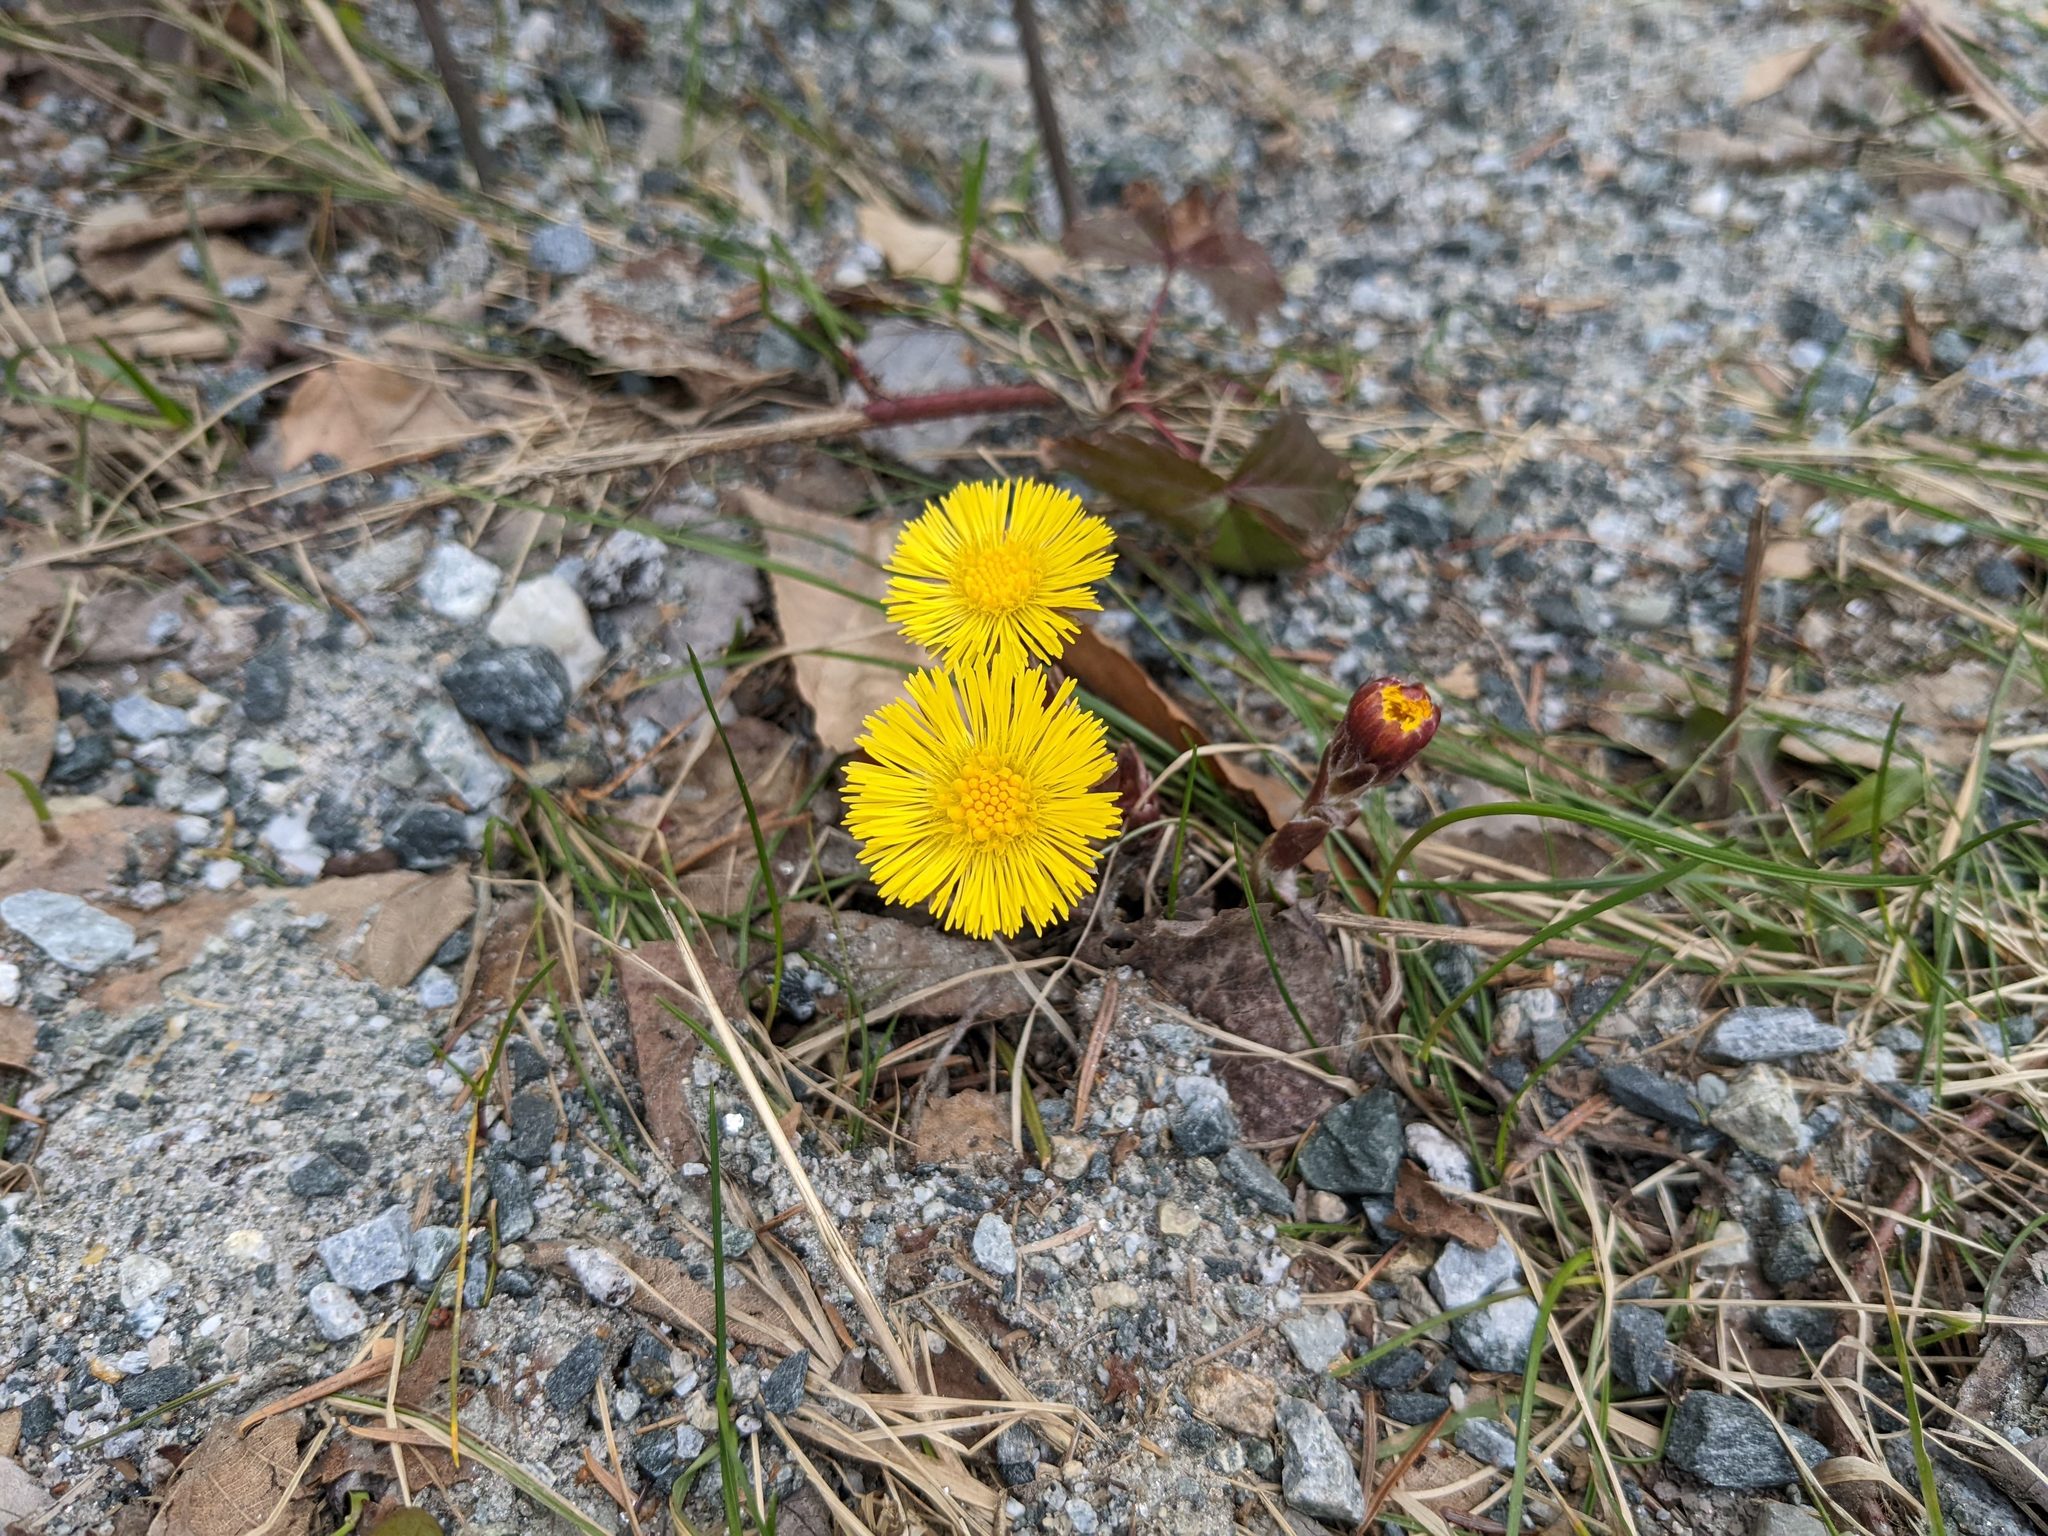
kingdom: Plantae
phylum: Tracheophyta
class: Magnoliopsida
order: Asterales
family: Asteraceae
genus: Tussilago
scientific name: Tussilago farfara
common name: Coltsfoot
